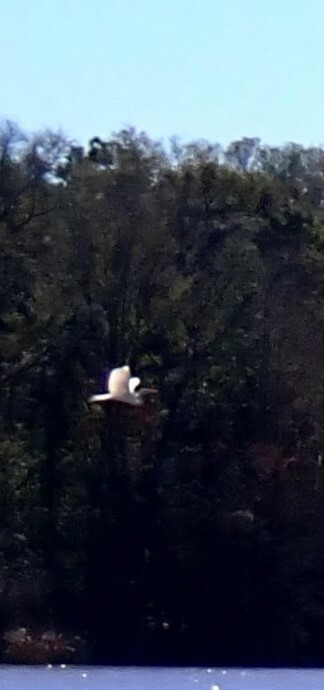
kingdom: Animalia
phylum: Chordata
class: Aves
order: Pelecaniformes
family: Ardeidae
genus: Ardea
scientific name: Ardea alba
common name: Great egret
